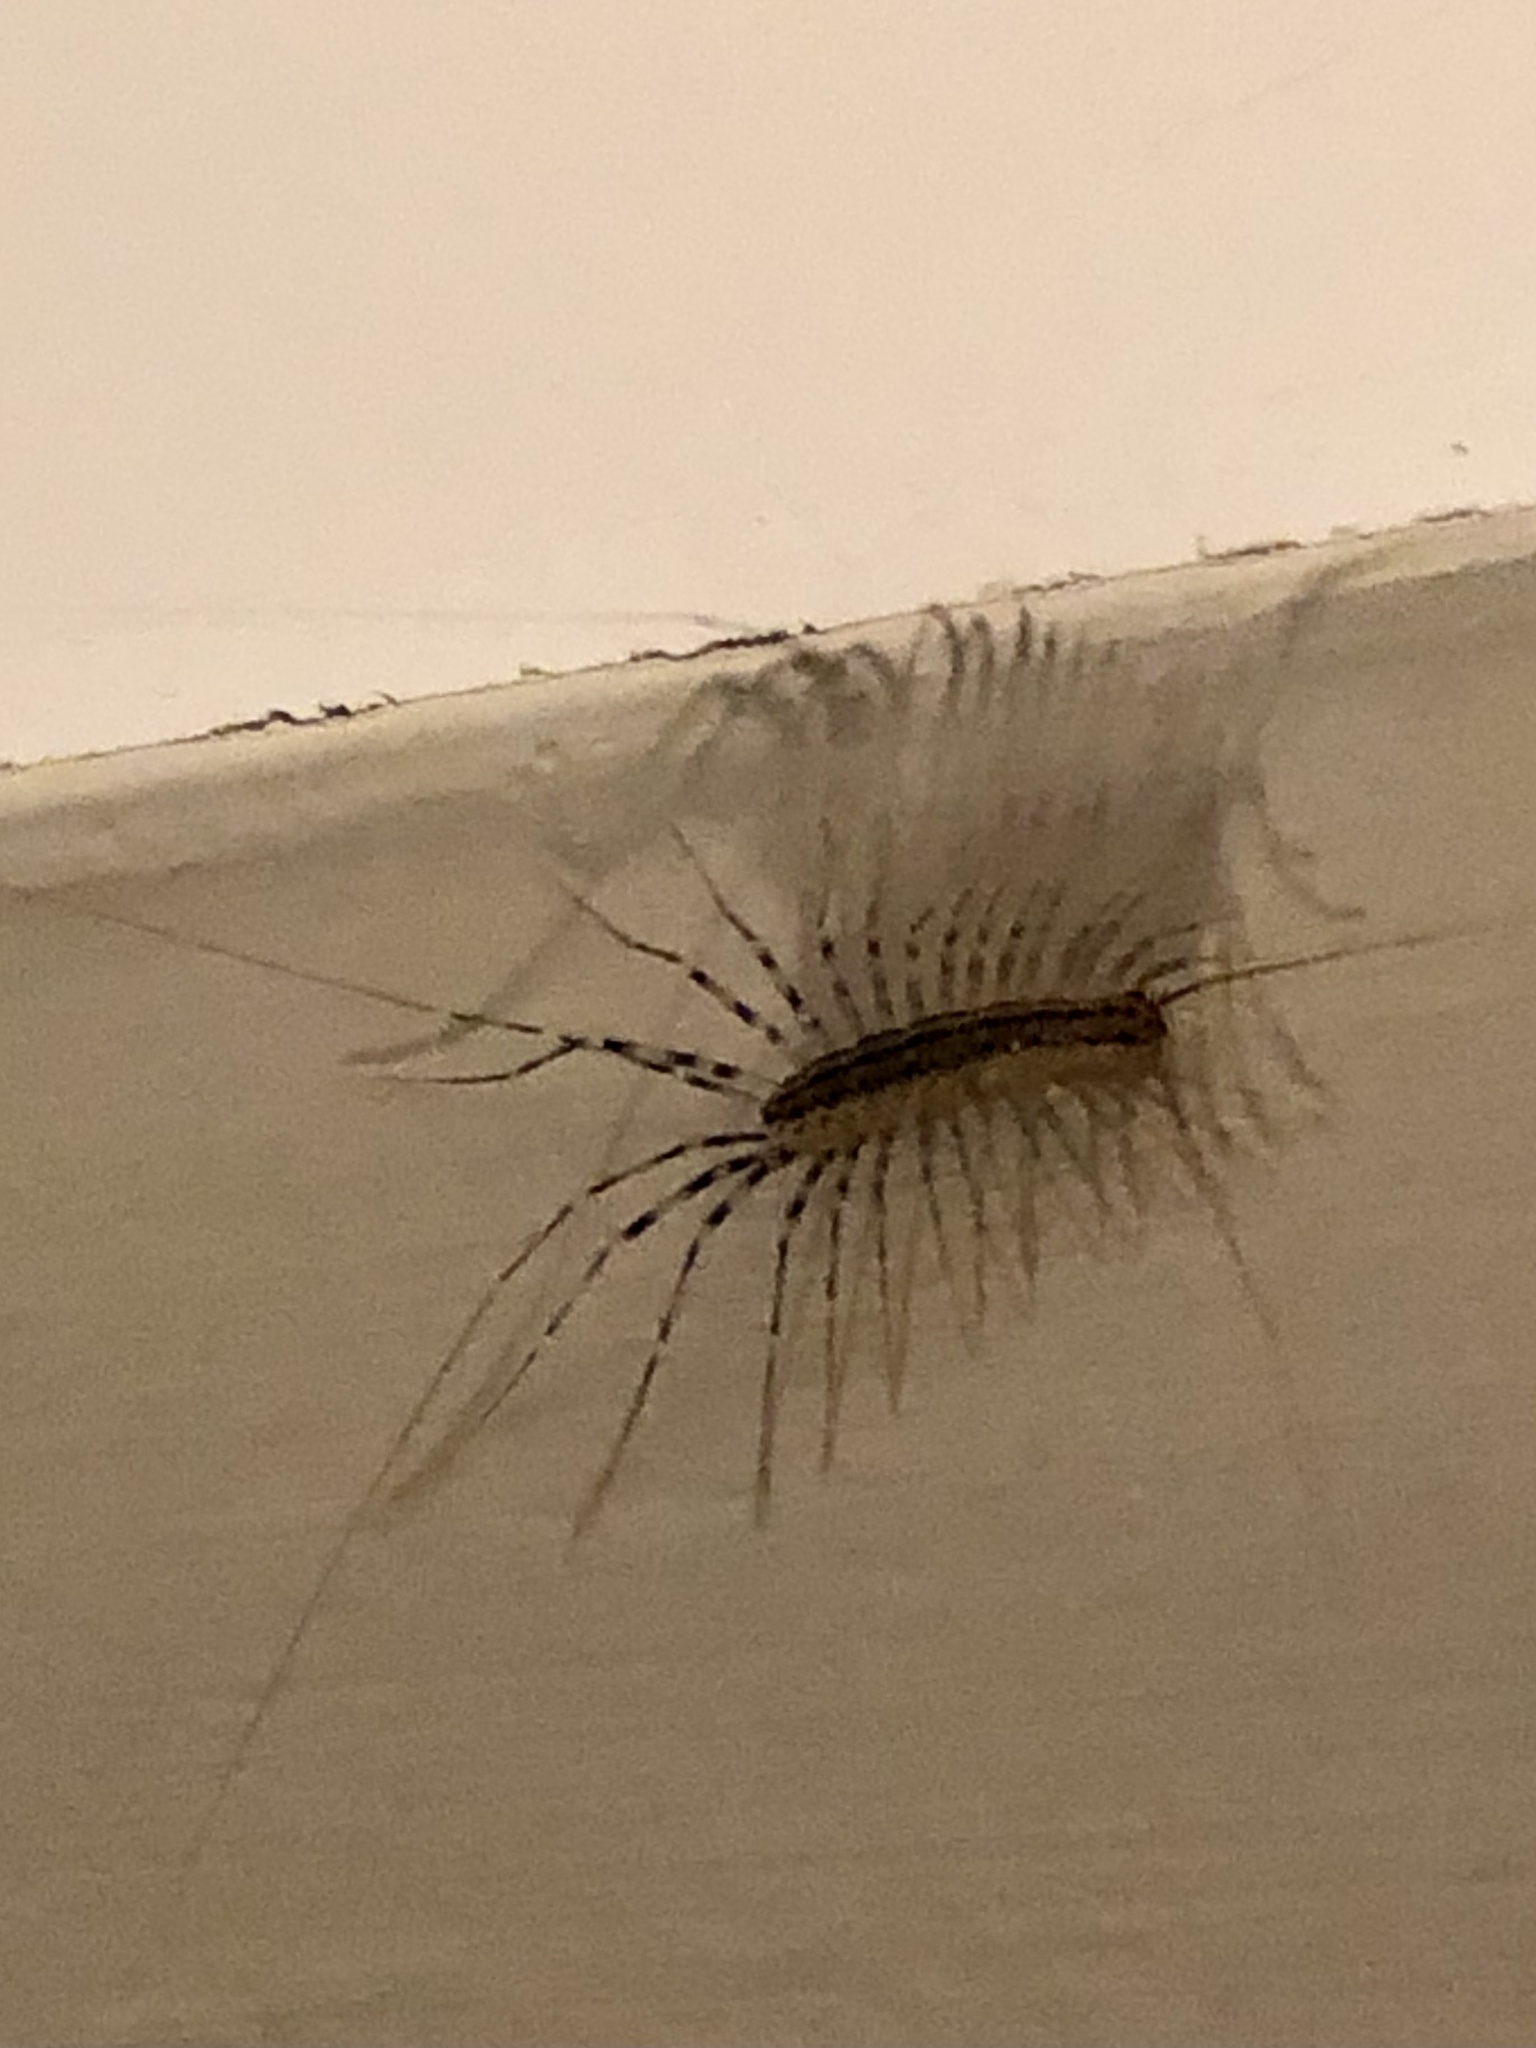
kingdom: Animalia
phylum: Arthropoda
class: Chilopoda
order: Scutigeromorpha
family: Scutigeridae
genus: Scutigera
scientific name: Scutigera coleoptrata
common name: House centipede
